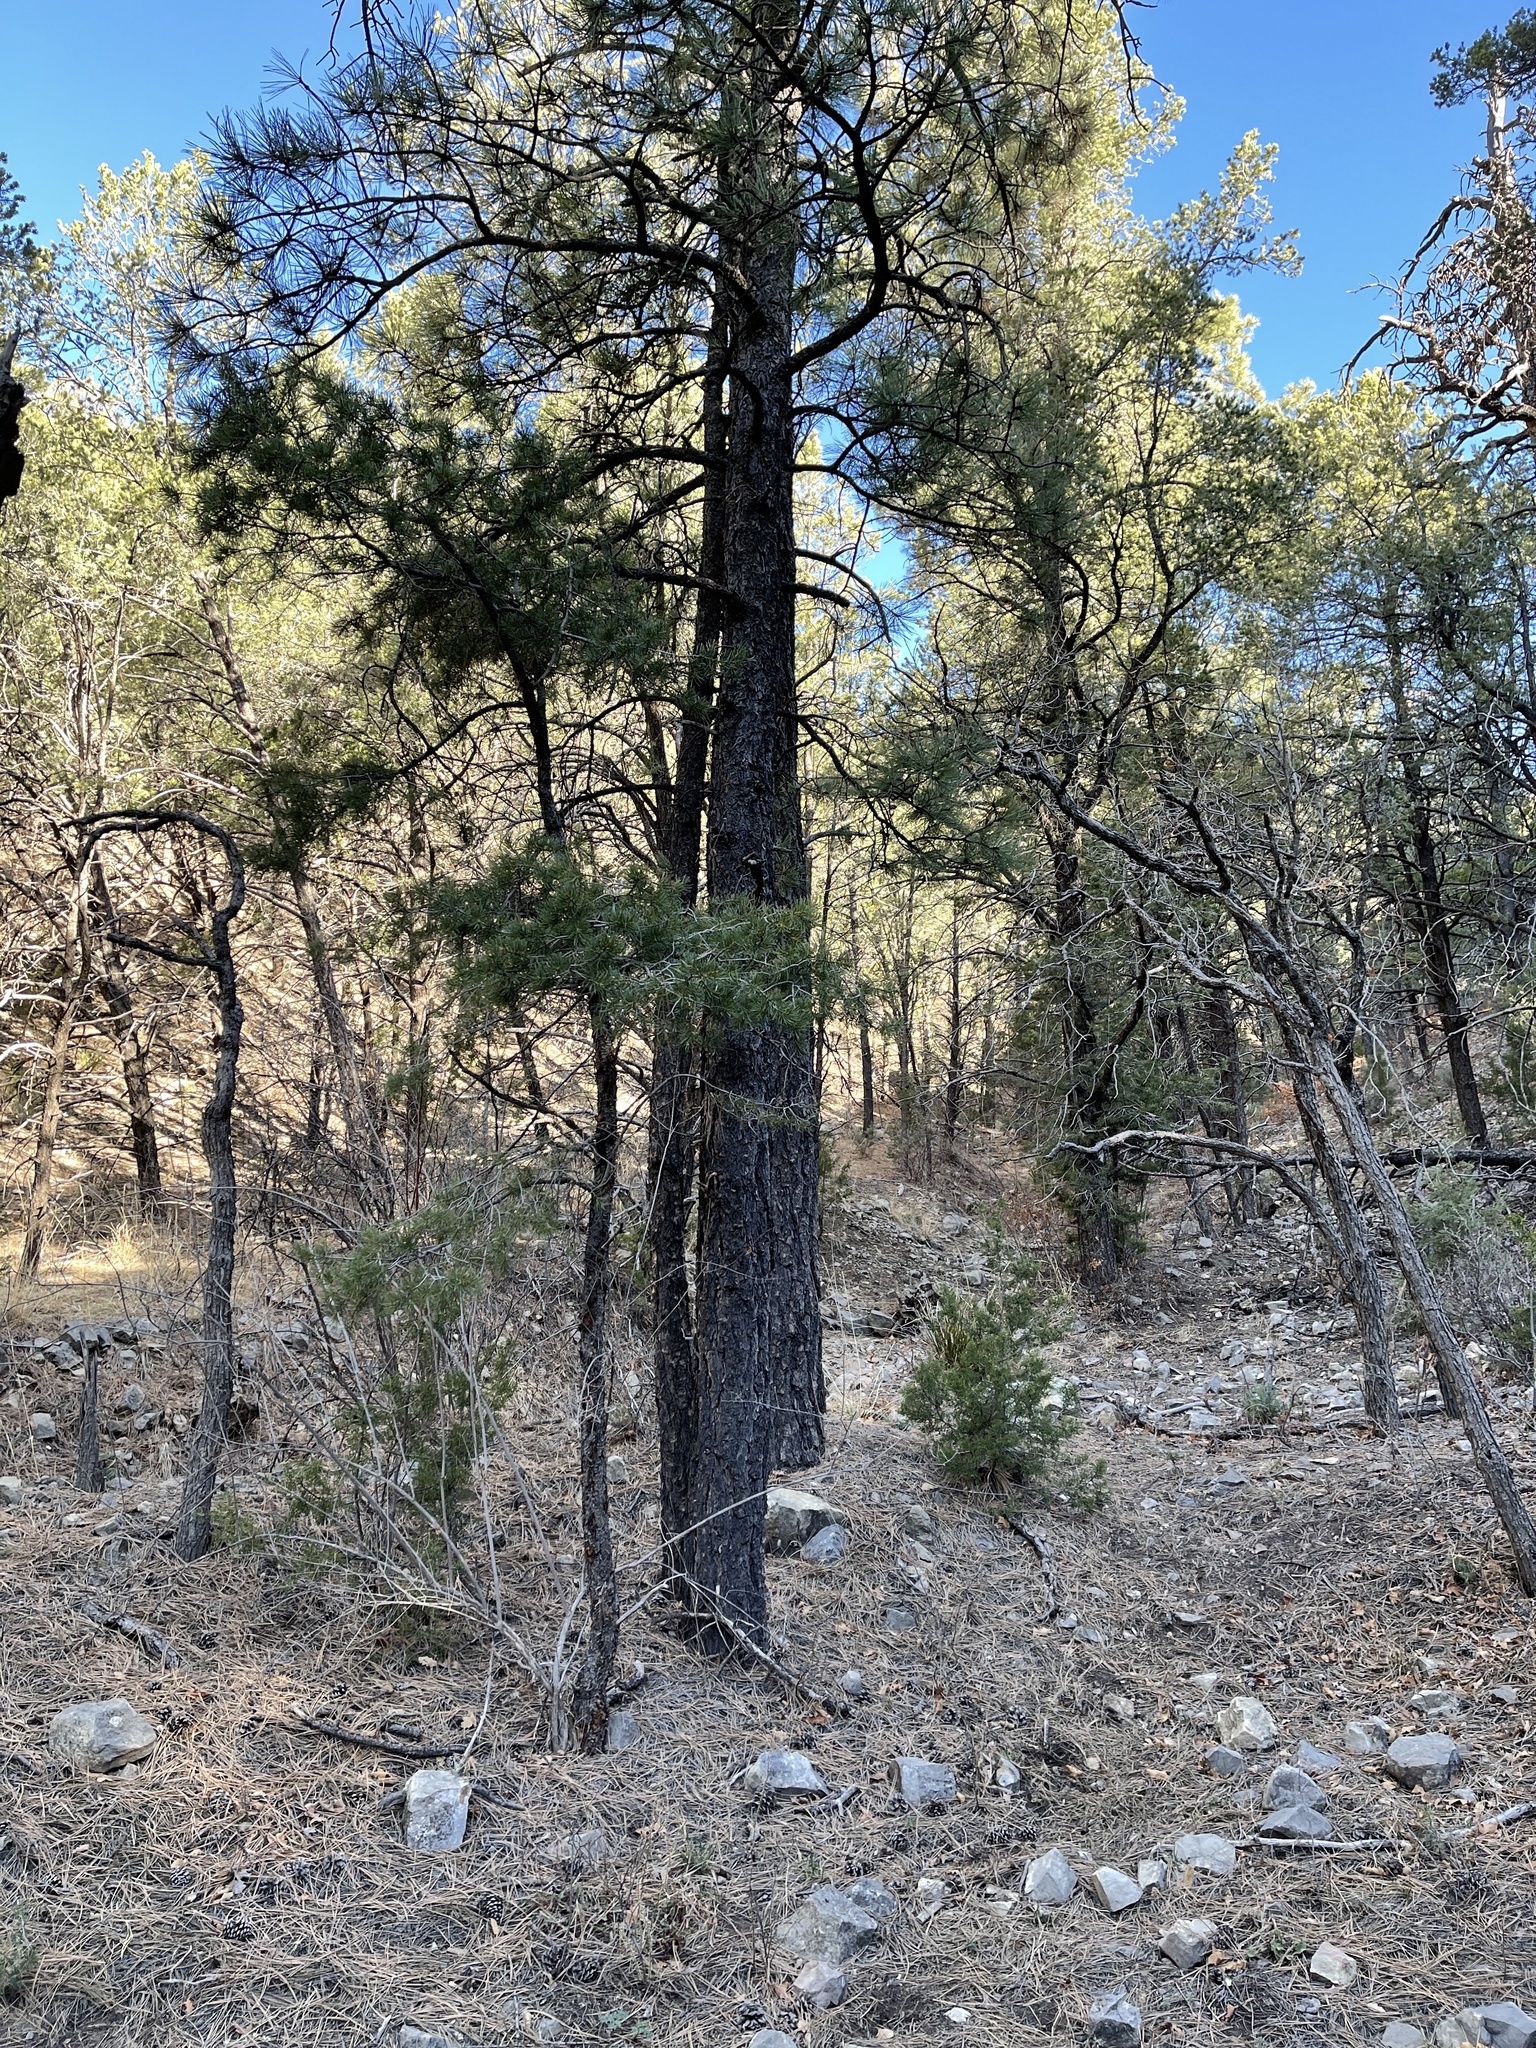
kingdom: Plantae
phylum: Tracheophyta
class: Pinopsida
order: Pinales
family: Pinaceae
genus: Pinus
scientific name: Pinus ponderosa
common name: Western yellow-pine
